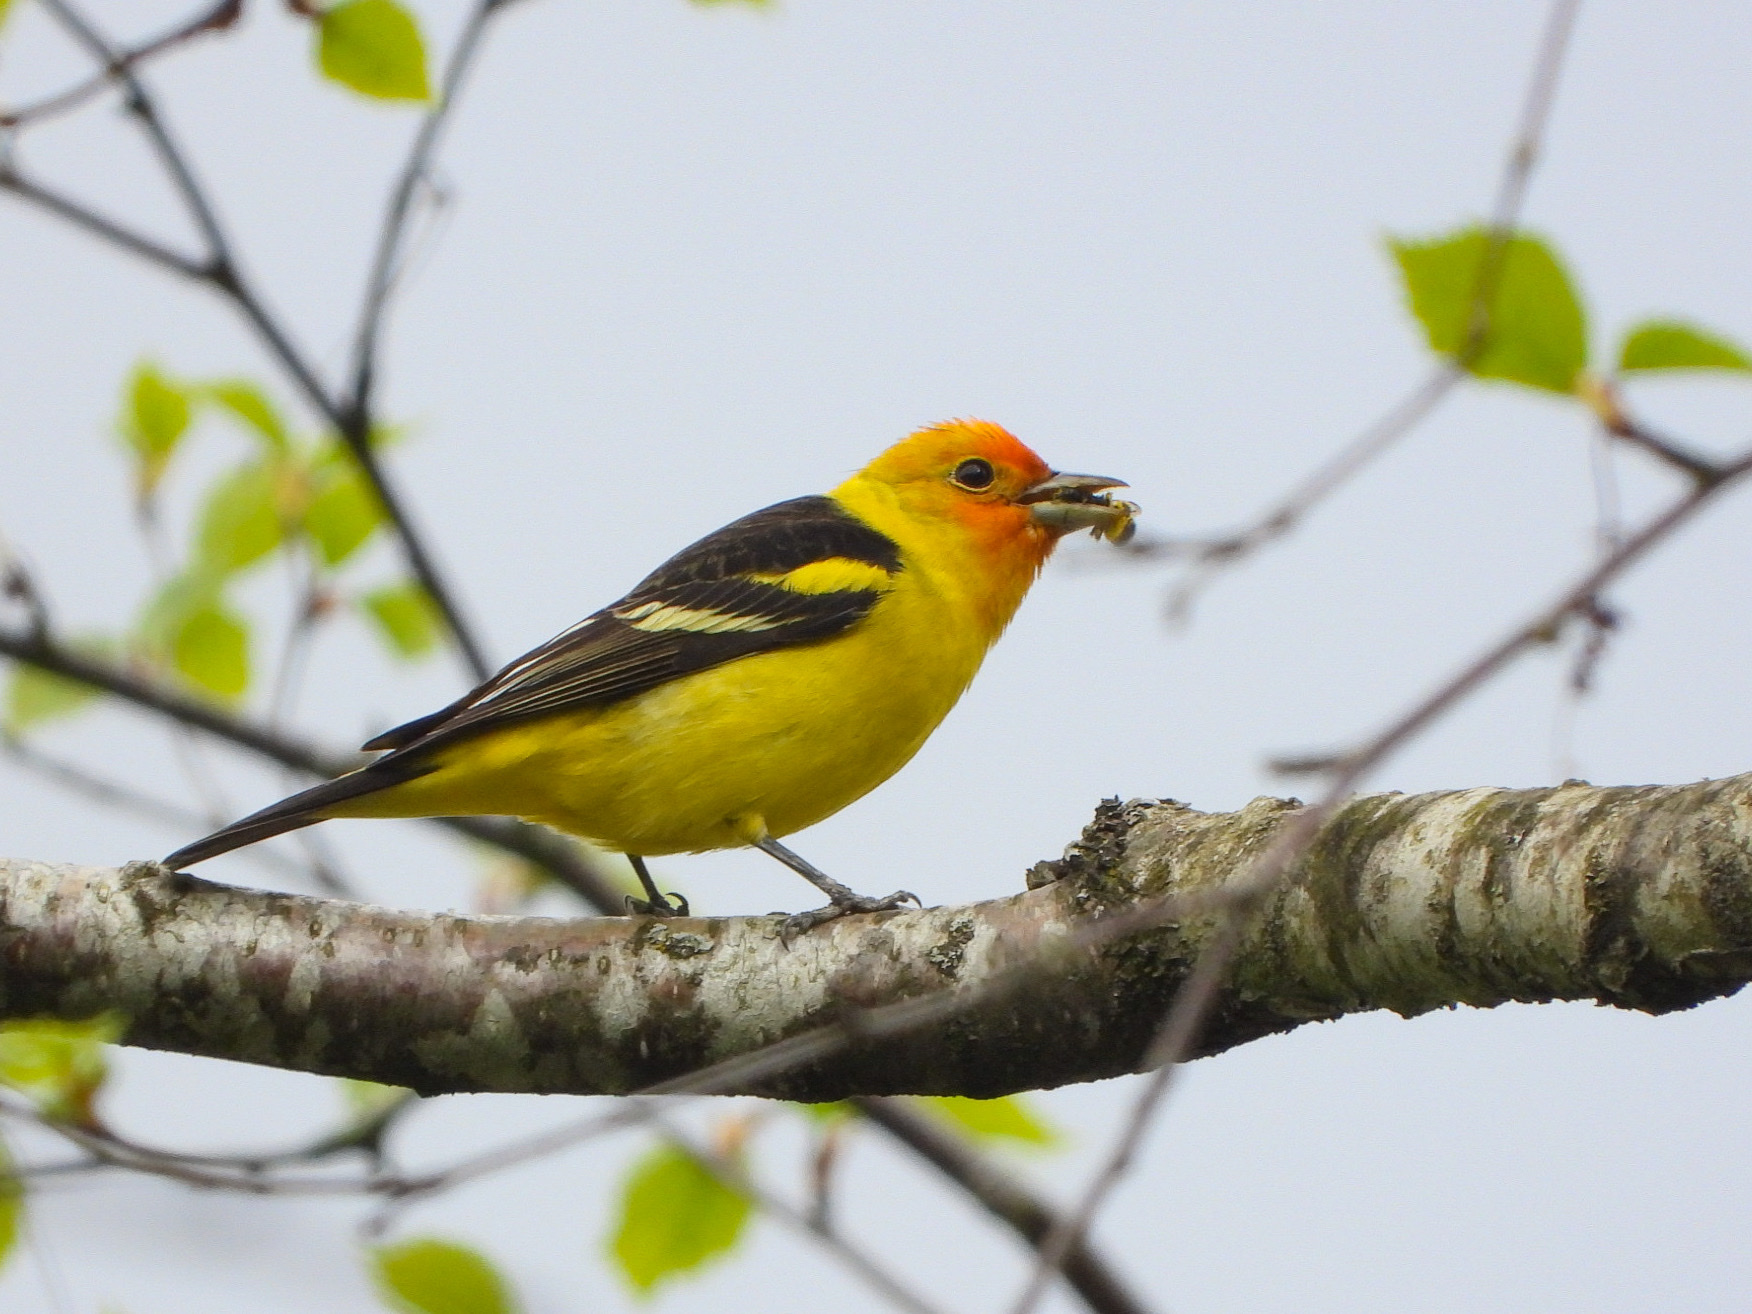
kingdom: Animalia
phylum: Chordata
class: Aves
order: Passeriformes
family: Cardinalidae
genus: Piranga
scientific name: Piranga ludoviciana
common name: Western tanager
